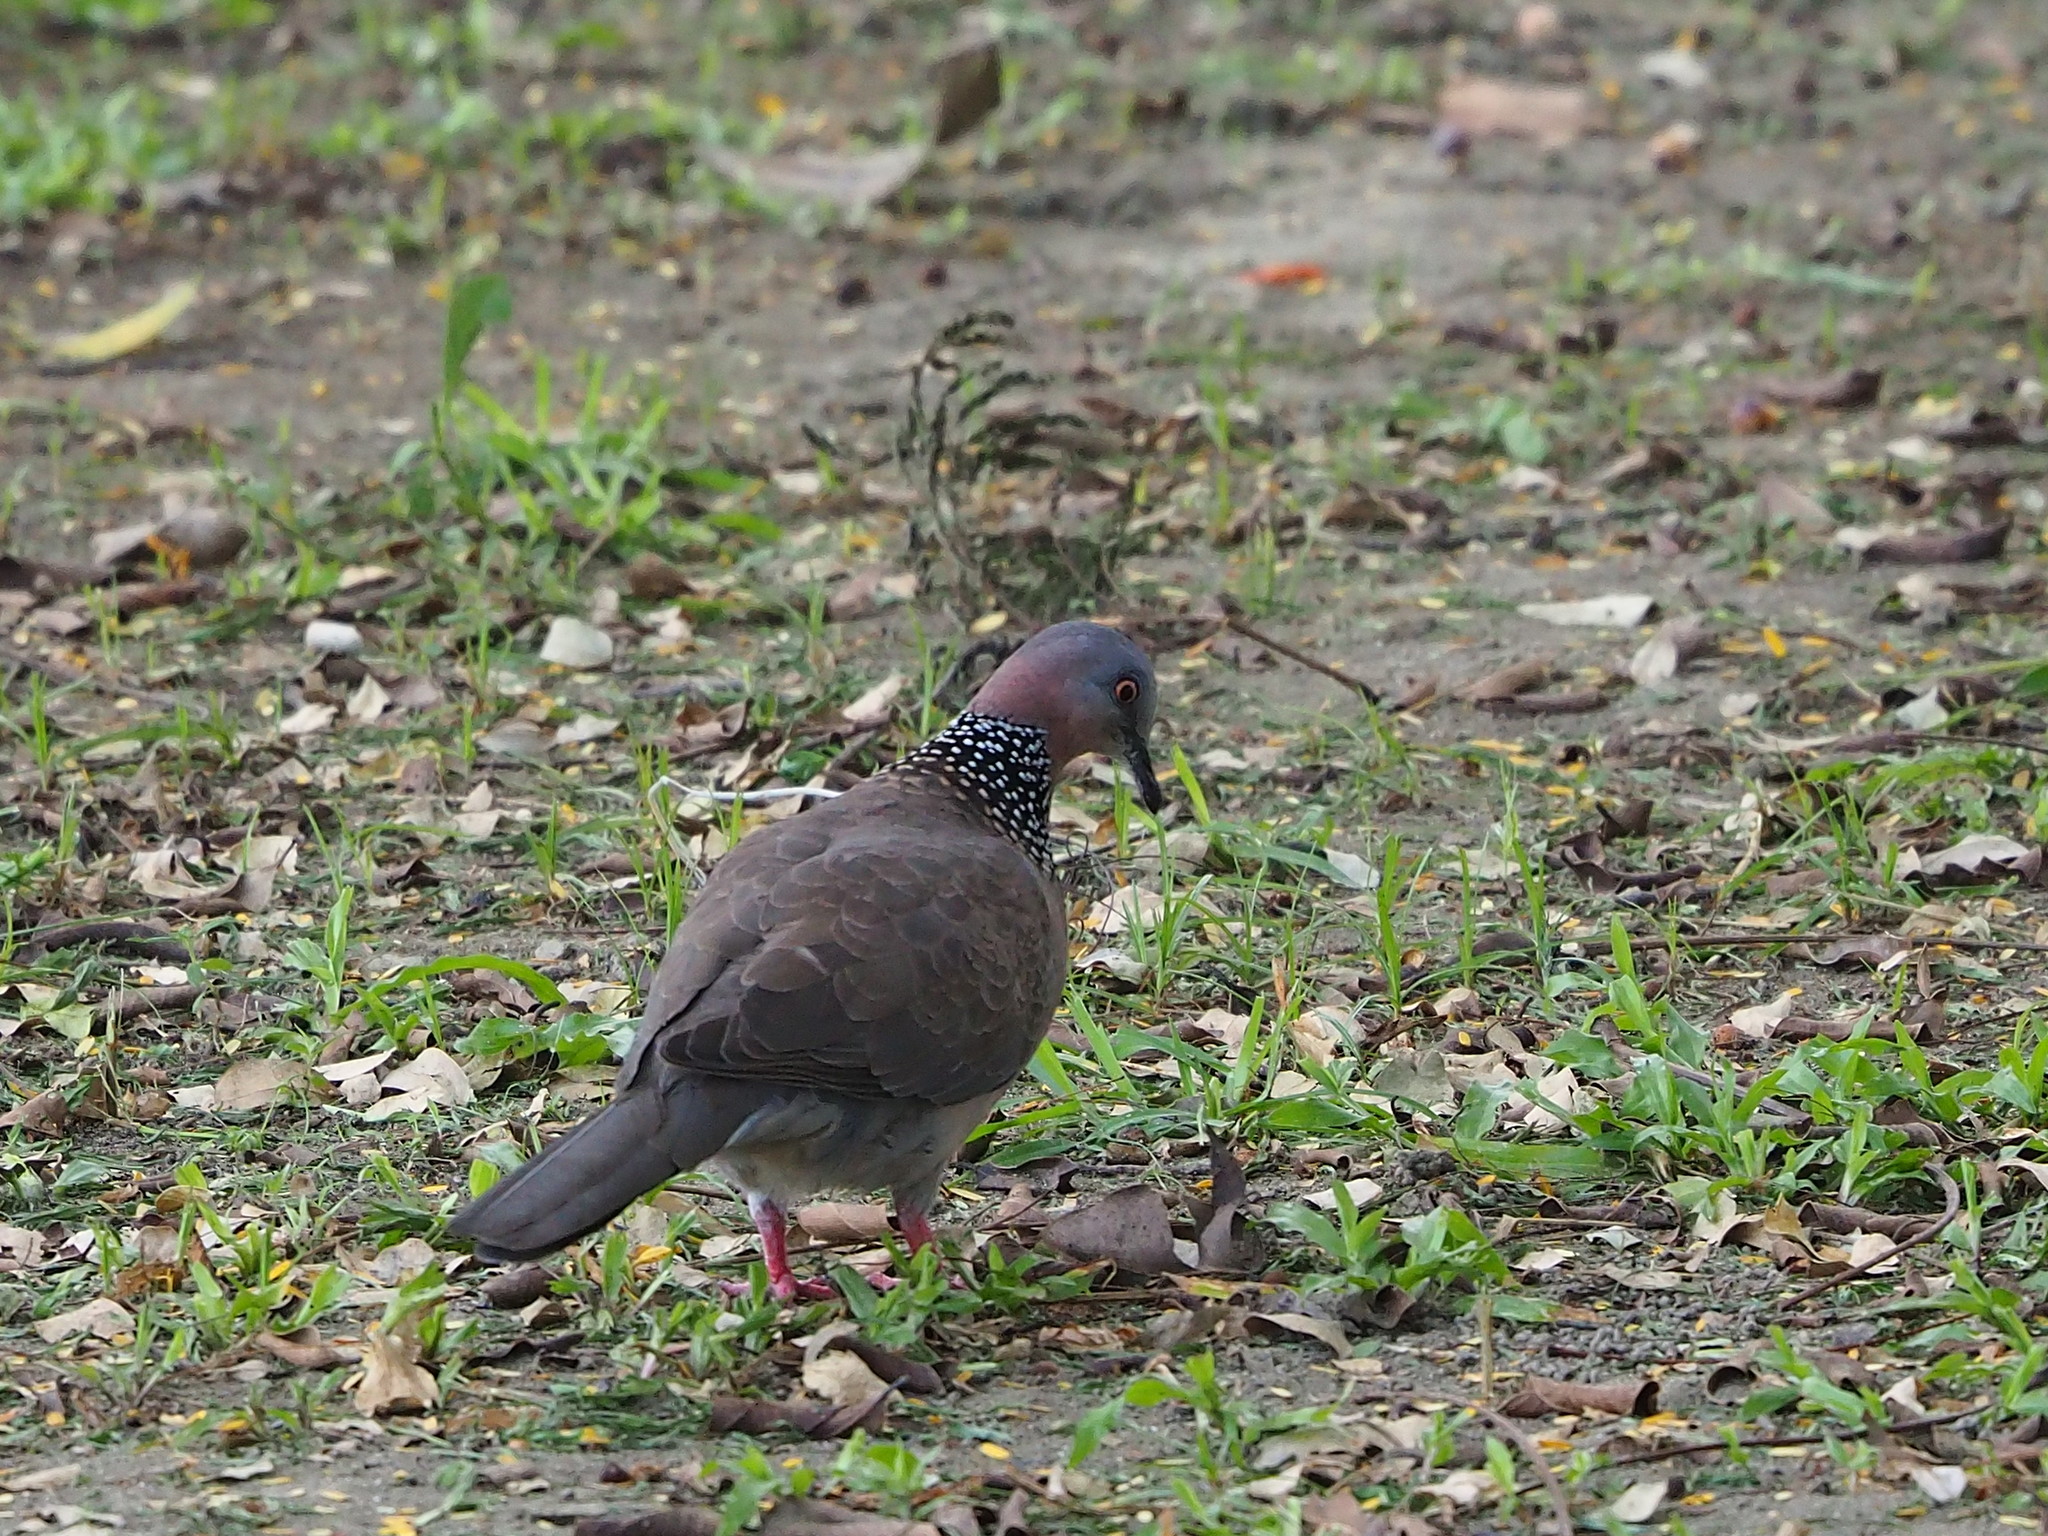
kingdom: Animalia
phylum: Chordata
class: Aves
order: Columbiformes
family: Columbidae
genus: Spilopelia
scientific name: Spilopelia chinensis
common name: Spotted dove
